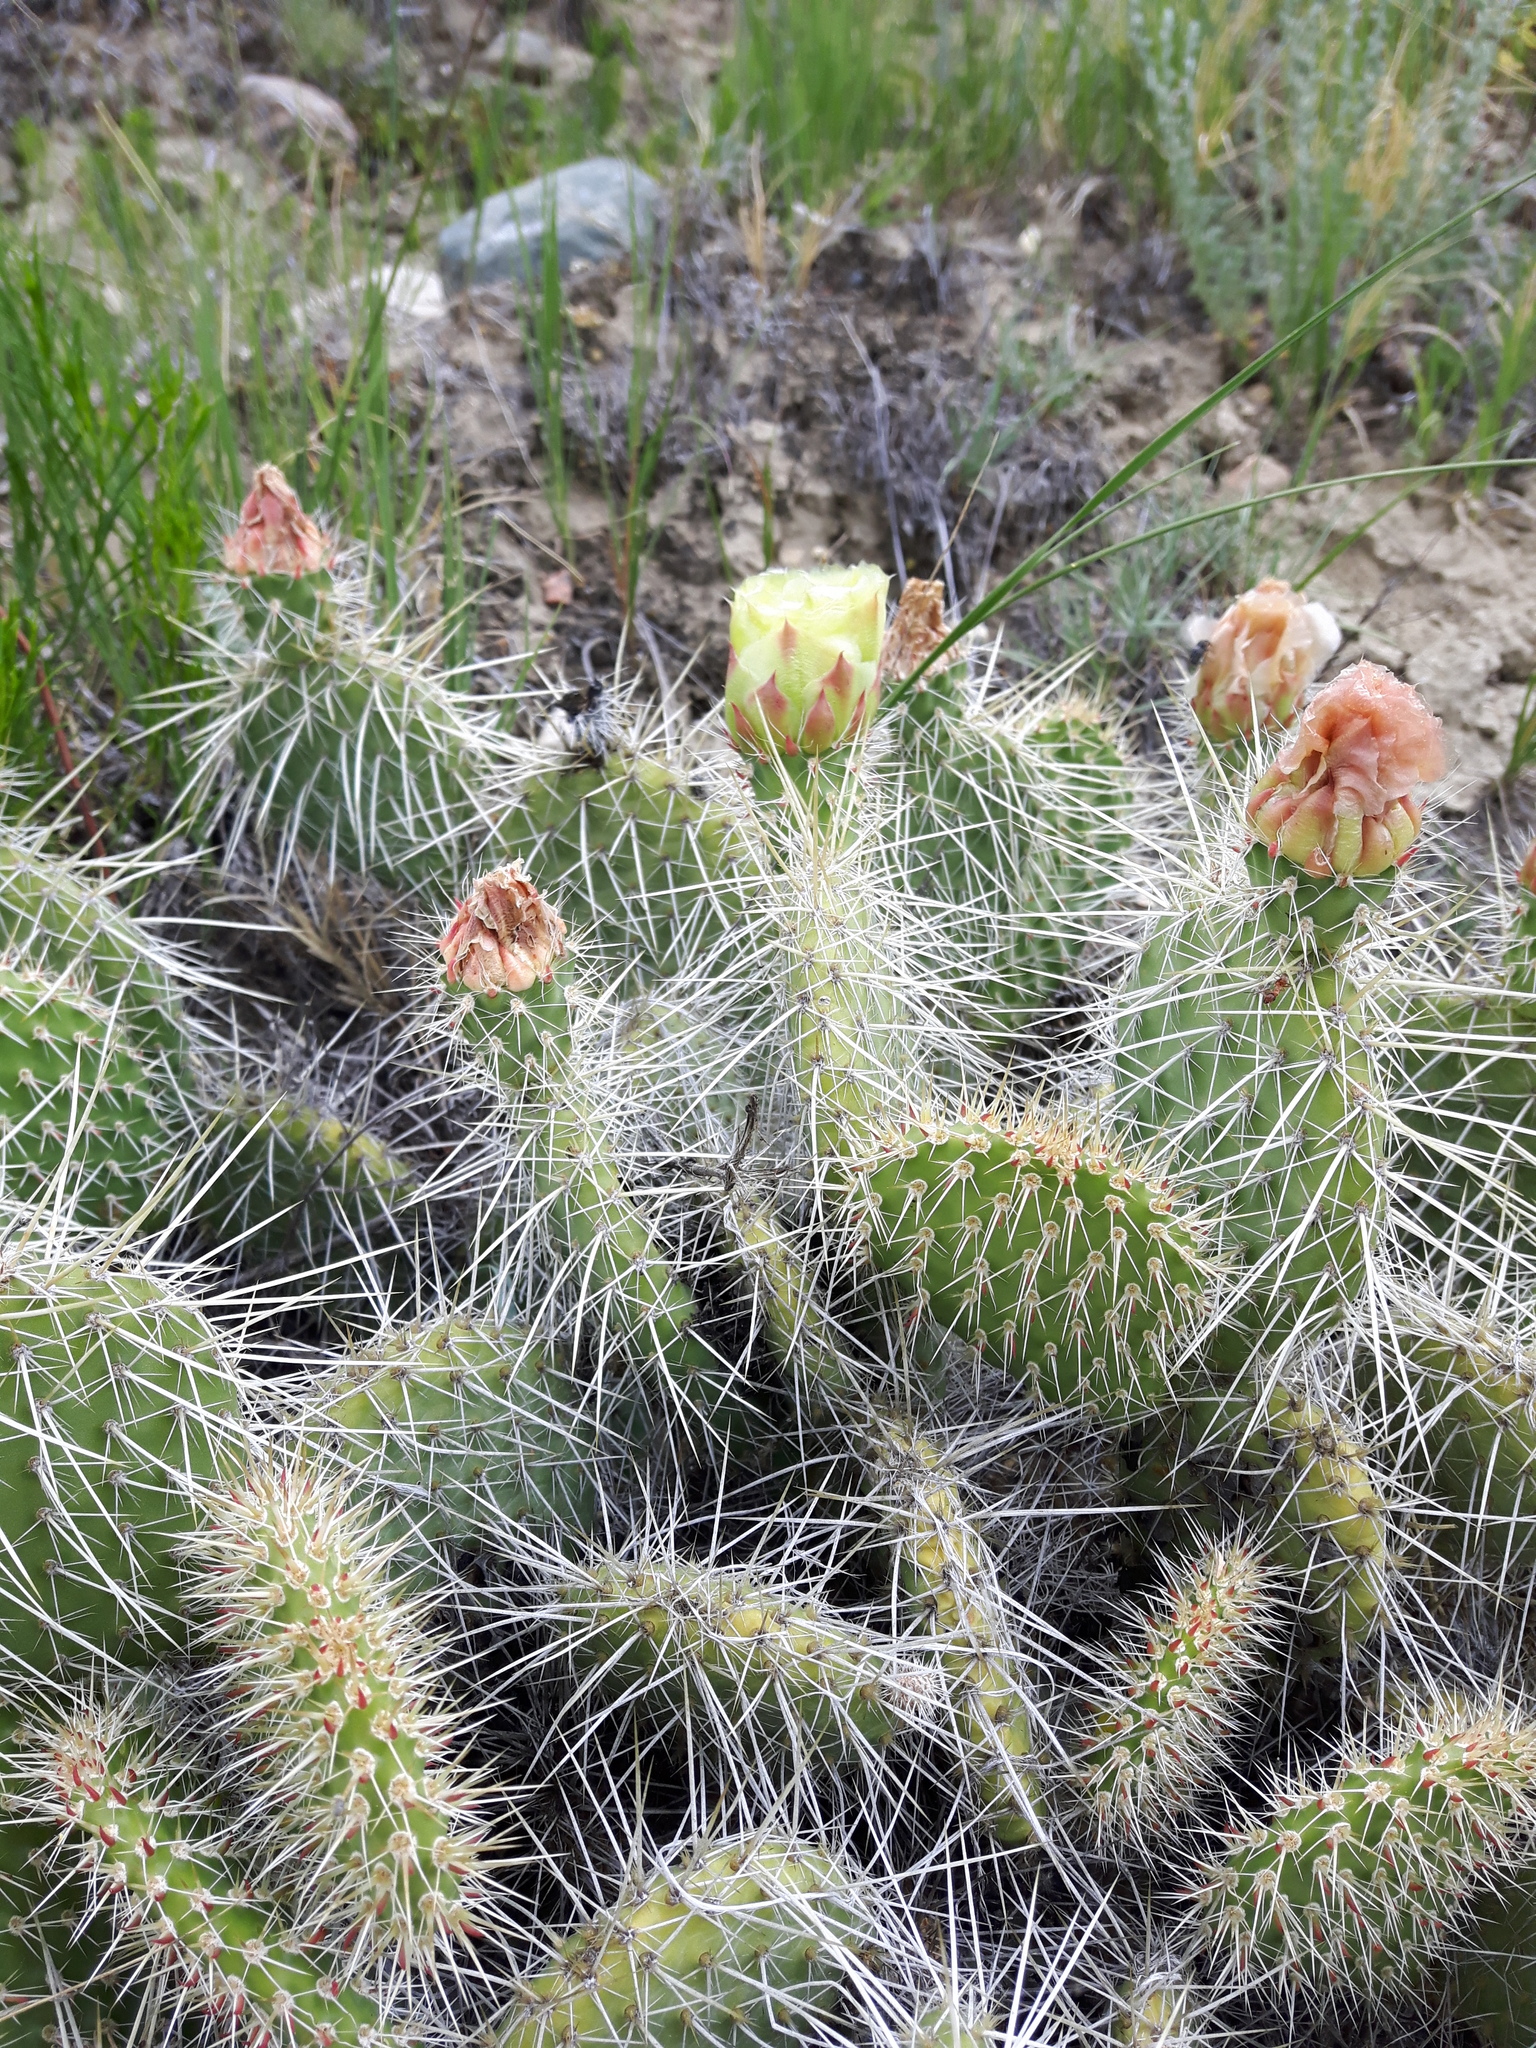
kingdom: Plantae
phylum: Tracheophyta
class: Magnoliopsida
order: Caryophyllales
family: Cactaceae
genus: Opuntia
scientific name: Opuntia polyacantha
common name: Plains prickly-pear
